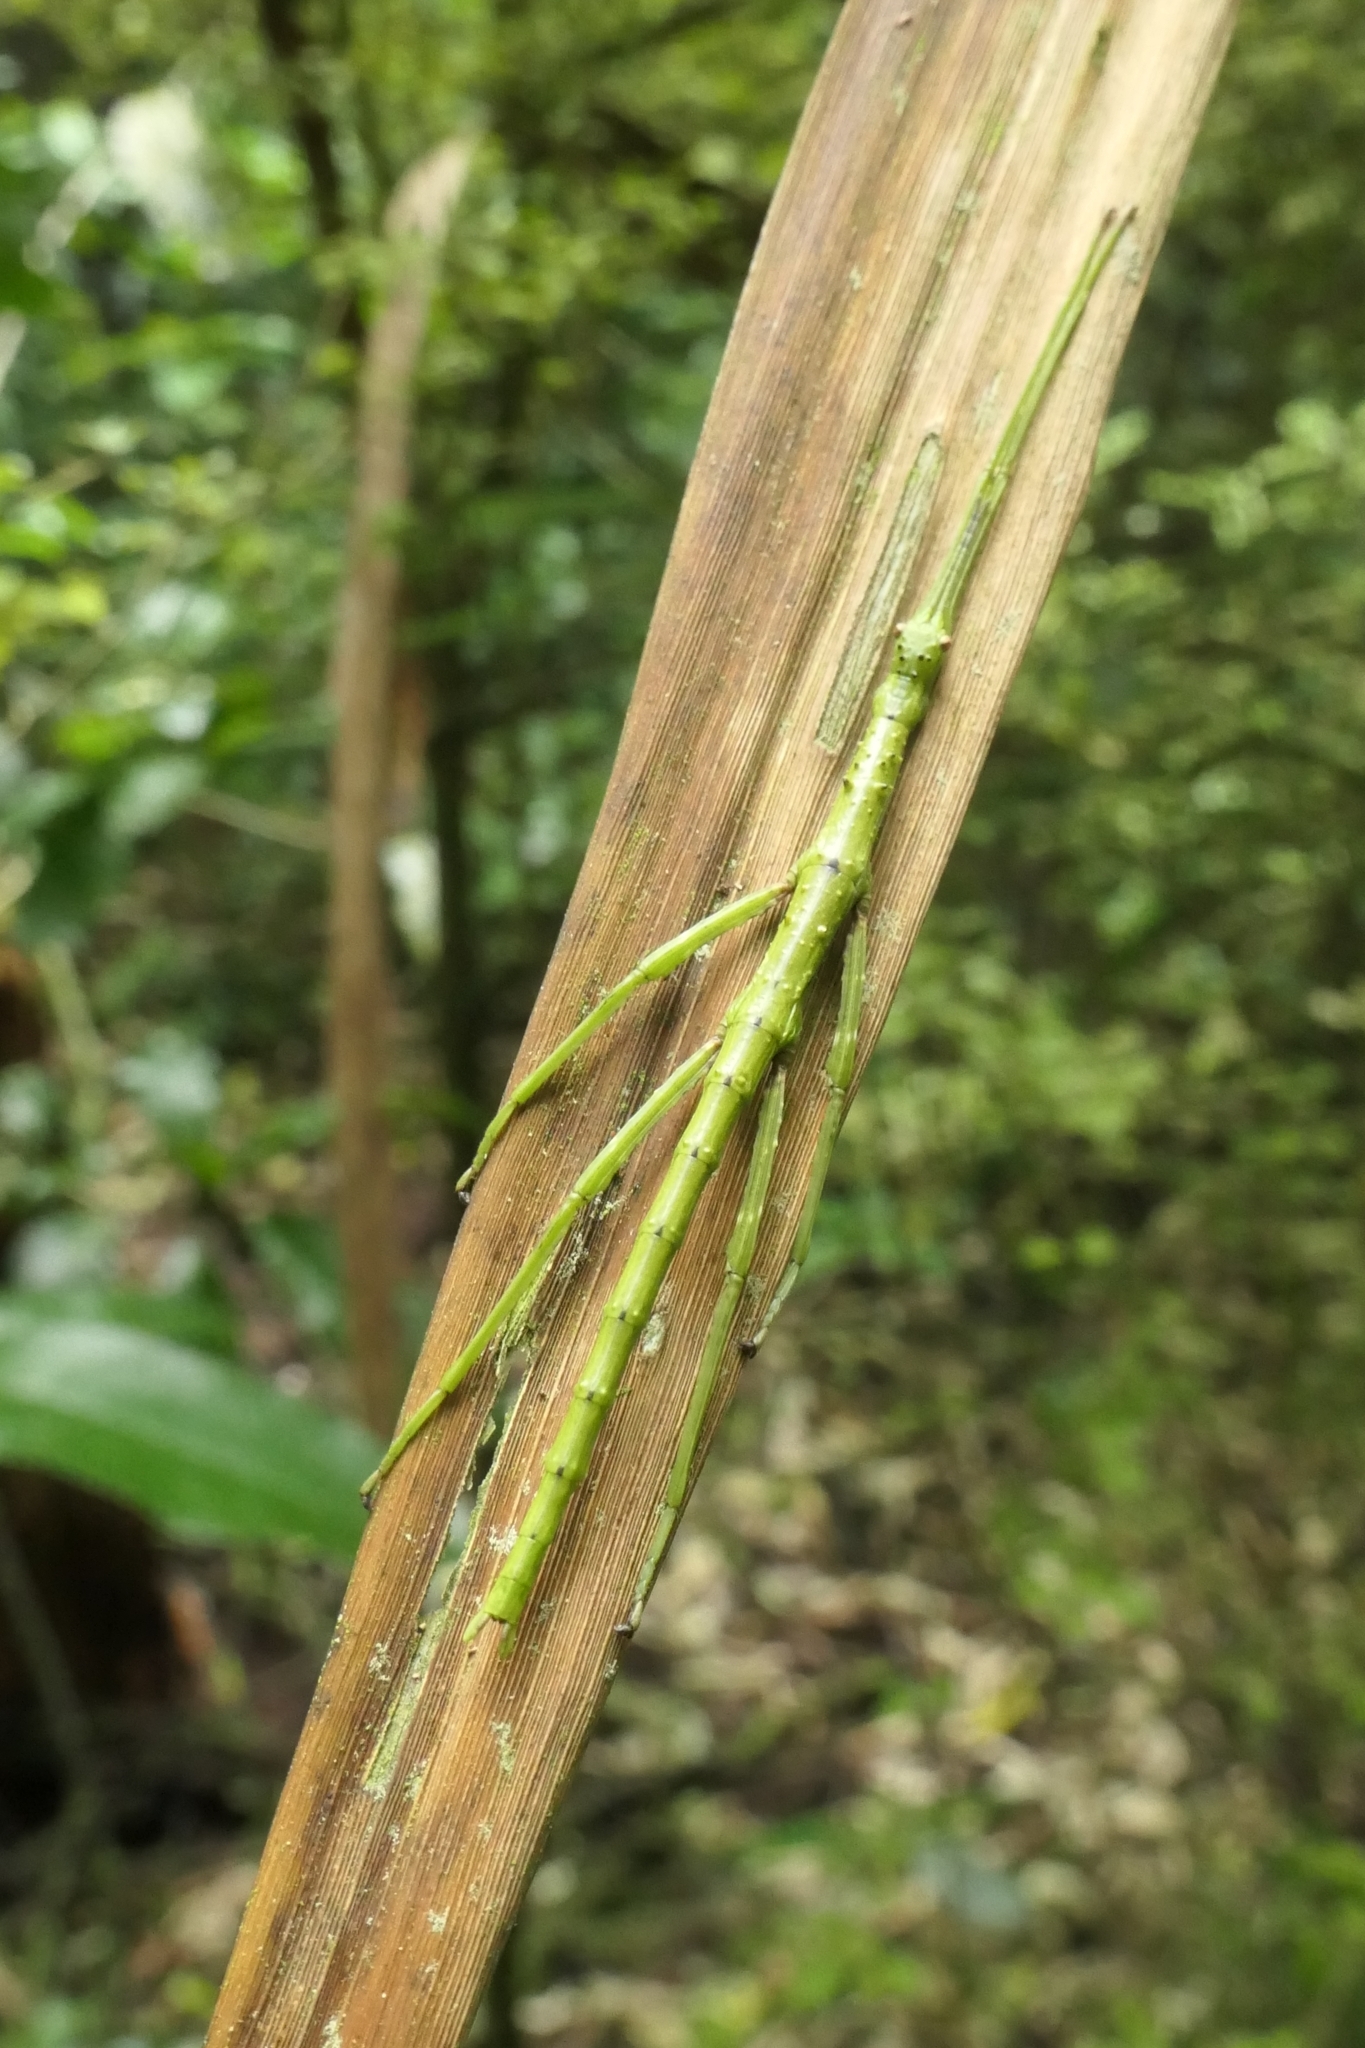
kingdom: Animalia
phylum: Arthropoda
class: Insecta
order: Phasmida
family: Phasmatidae
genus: Acanthoxyla
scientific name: Acanthoxyla prasina
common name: Black-spined stick insect
